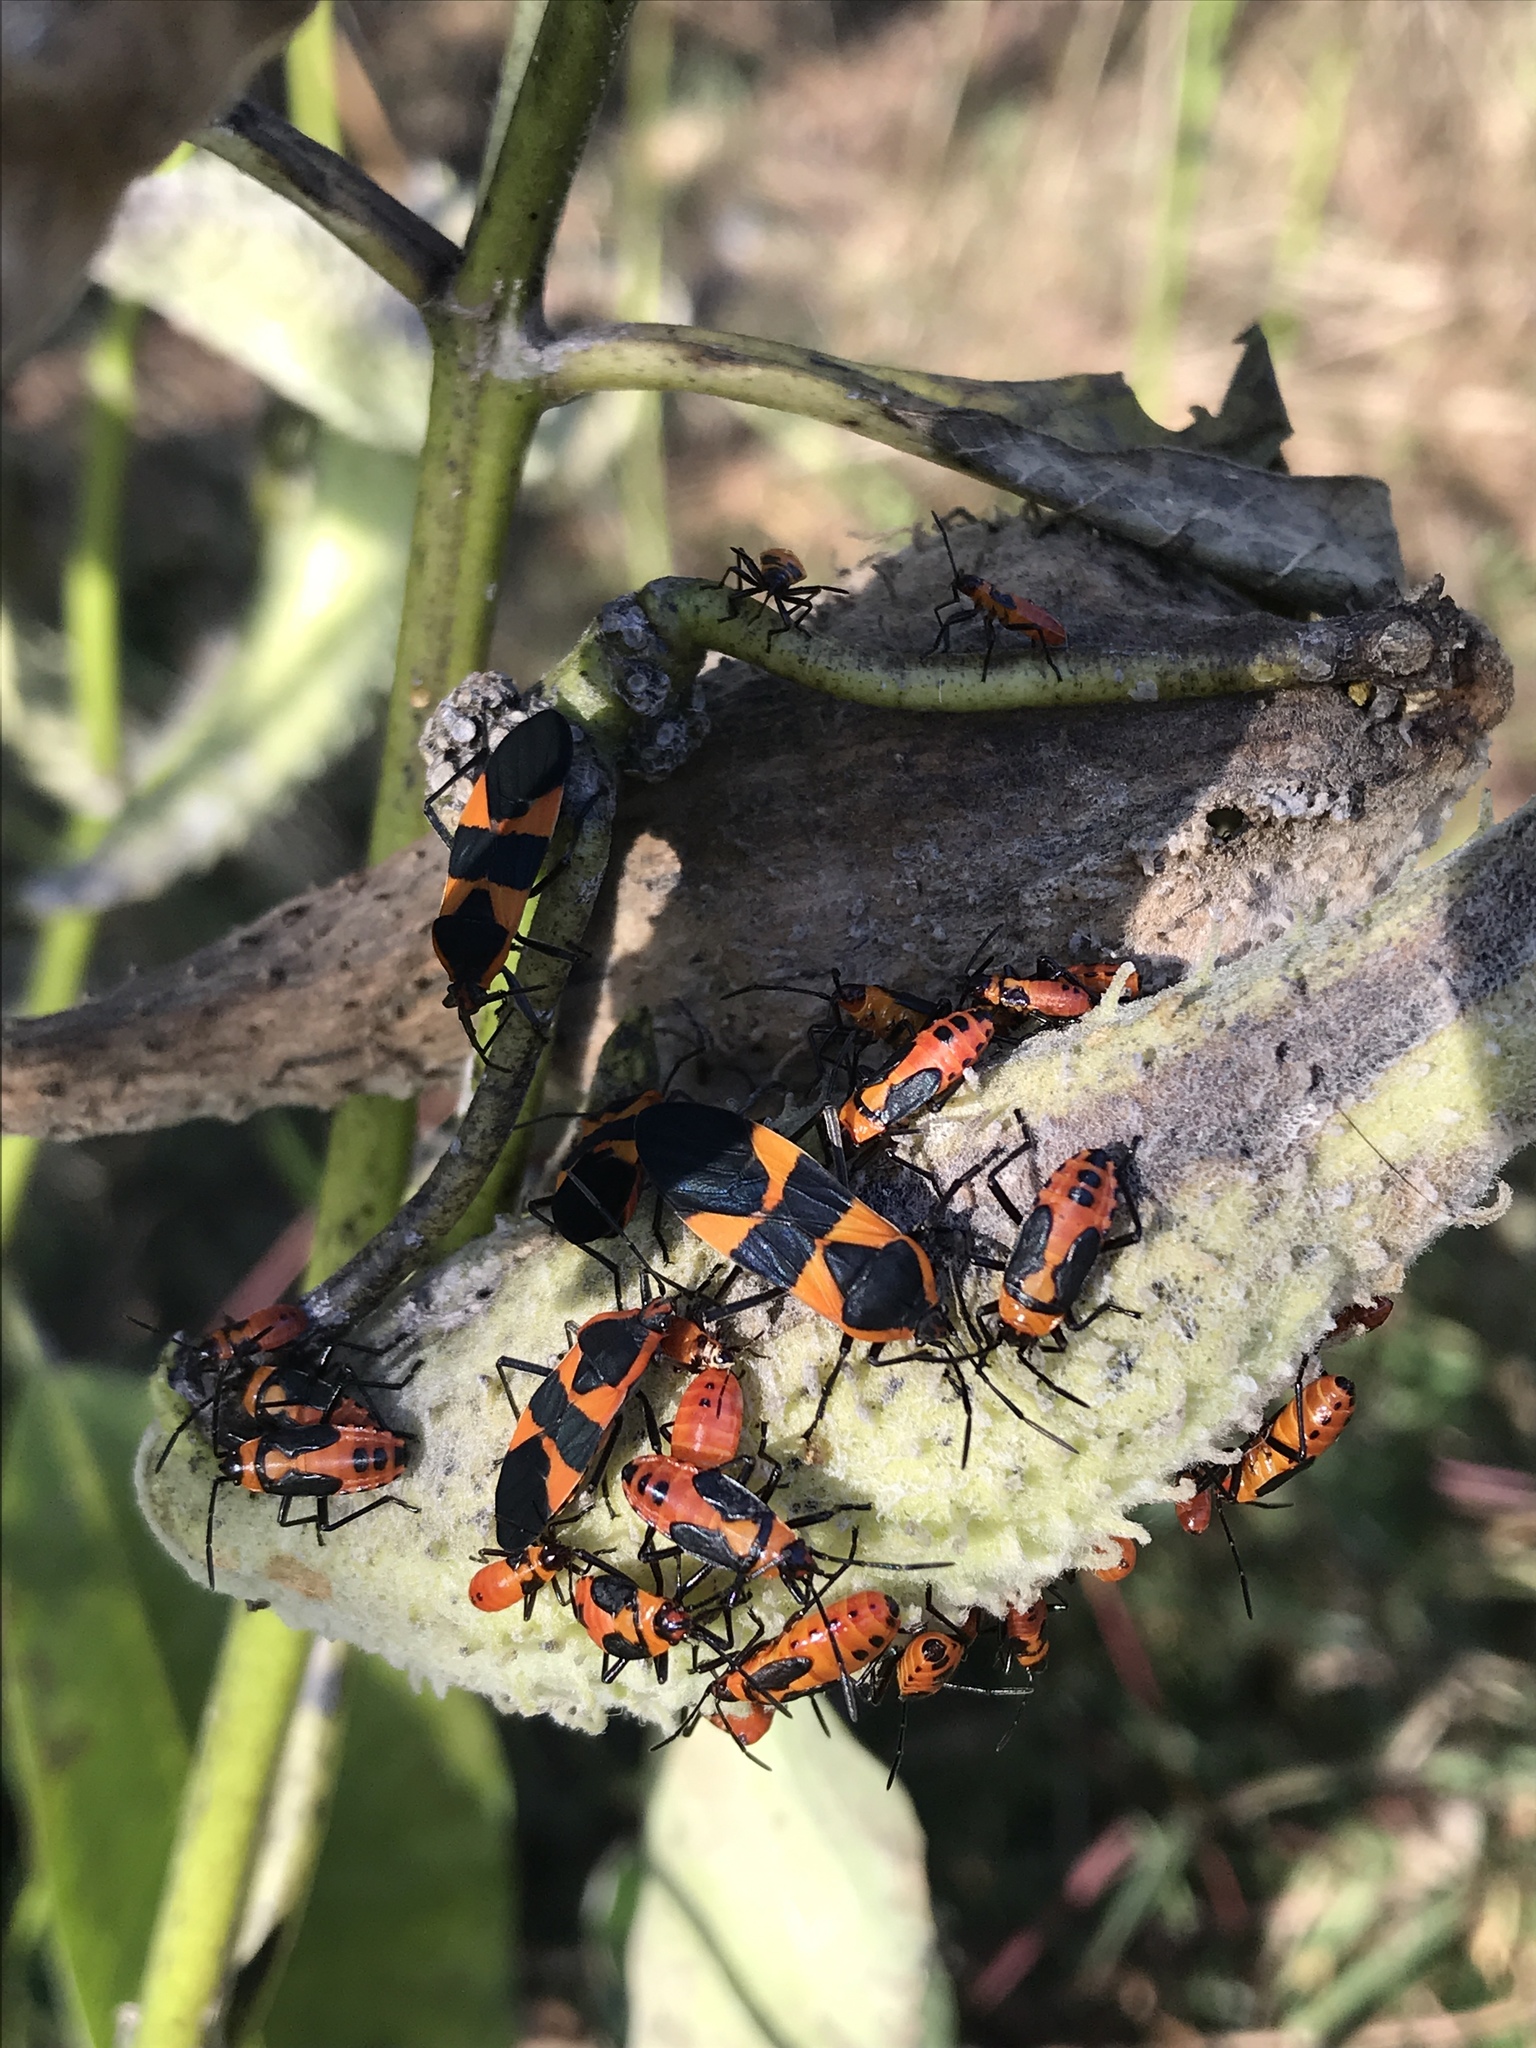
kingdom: Animalia
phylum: Arthropoda
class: Insecta
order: Hemiptera
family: Lygaeidae
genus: Oncopeltus
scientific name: Oncopeltus fasciatus
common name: Large milkweed bug
